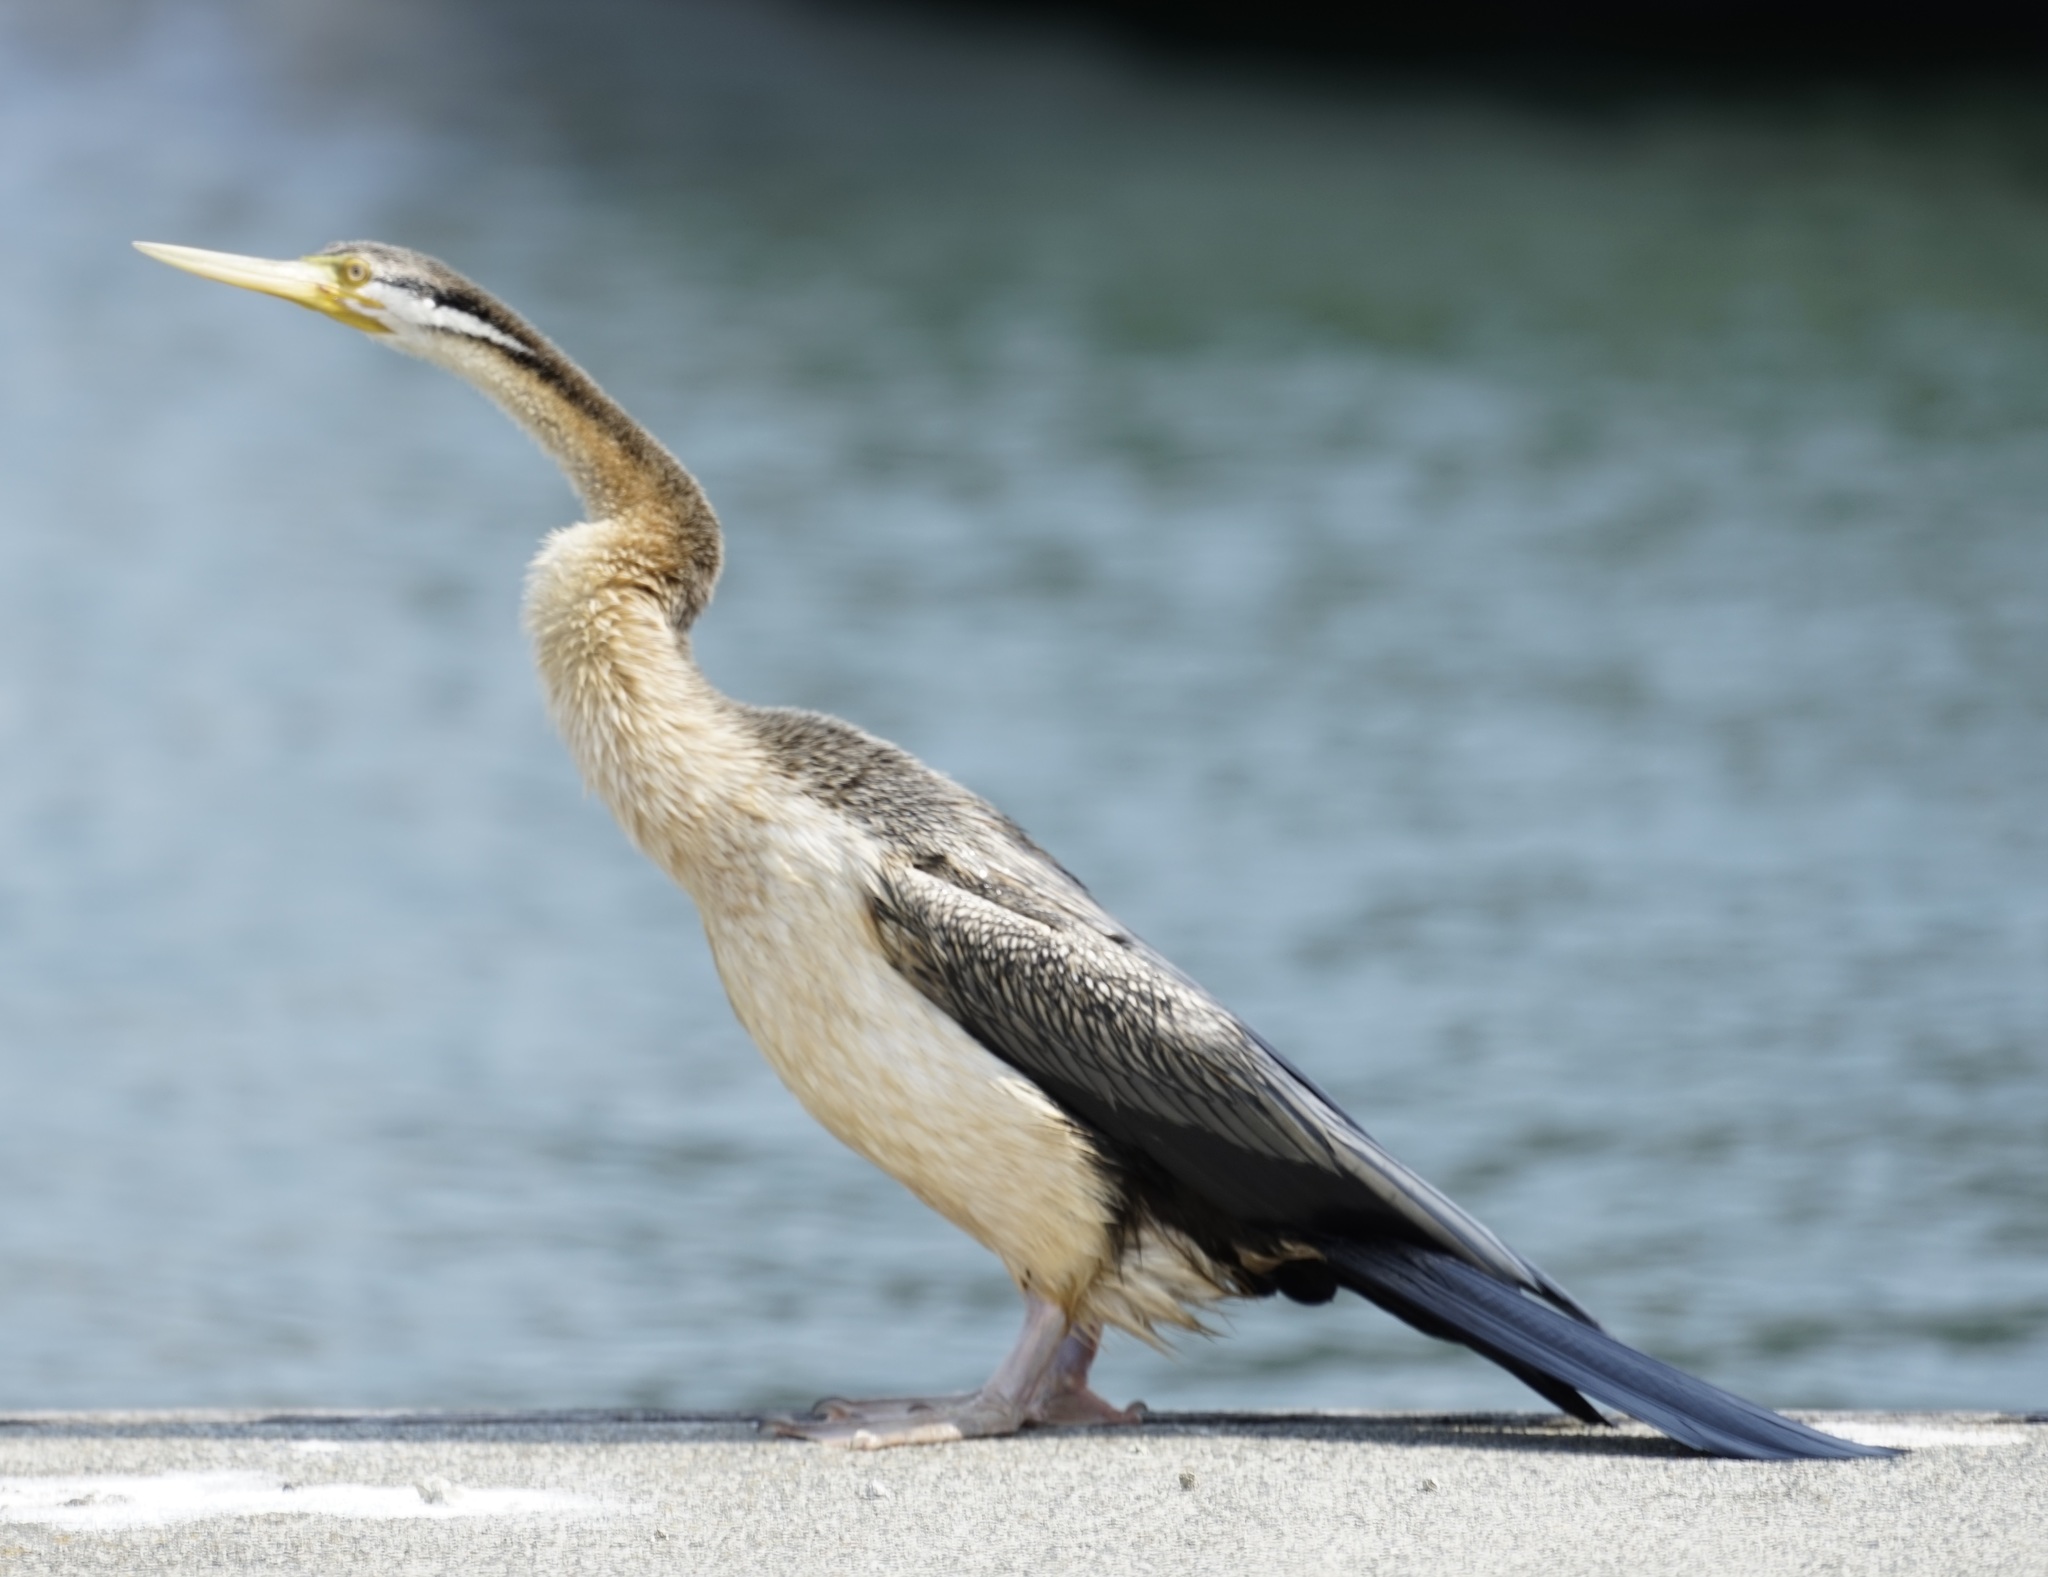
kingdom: Animalia
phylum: Chordata
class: Aves
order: Suliformes
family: Anhingidae
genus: Anhinga
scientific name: Anhinga novaehollandiae
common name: Australasian darter
